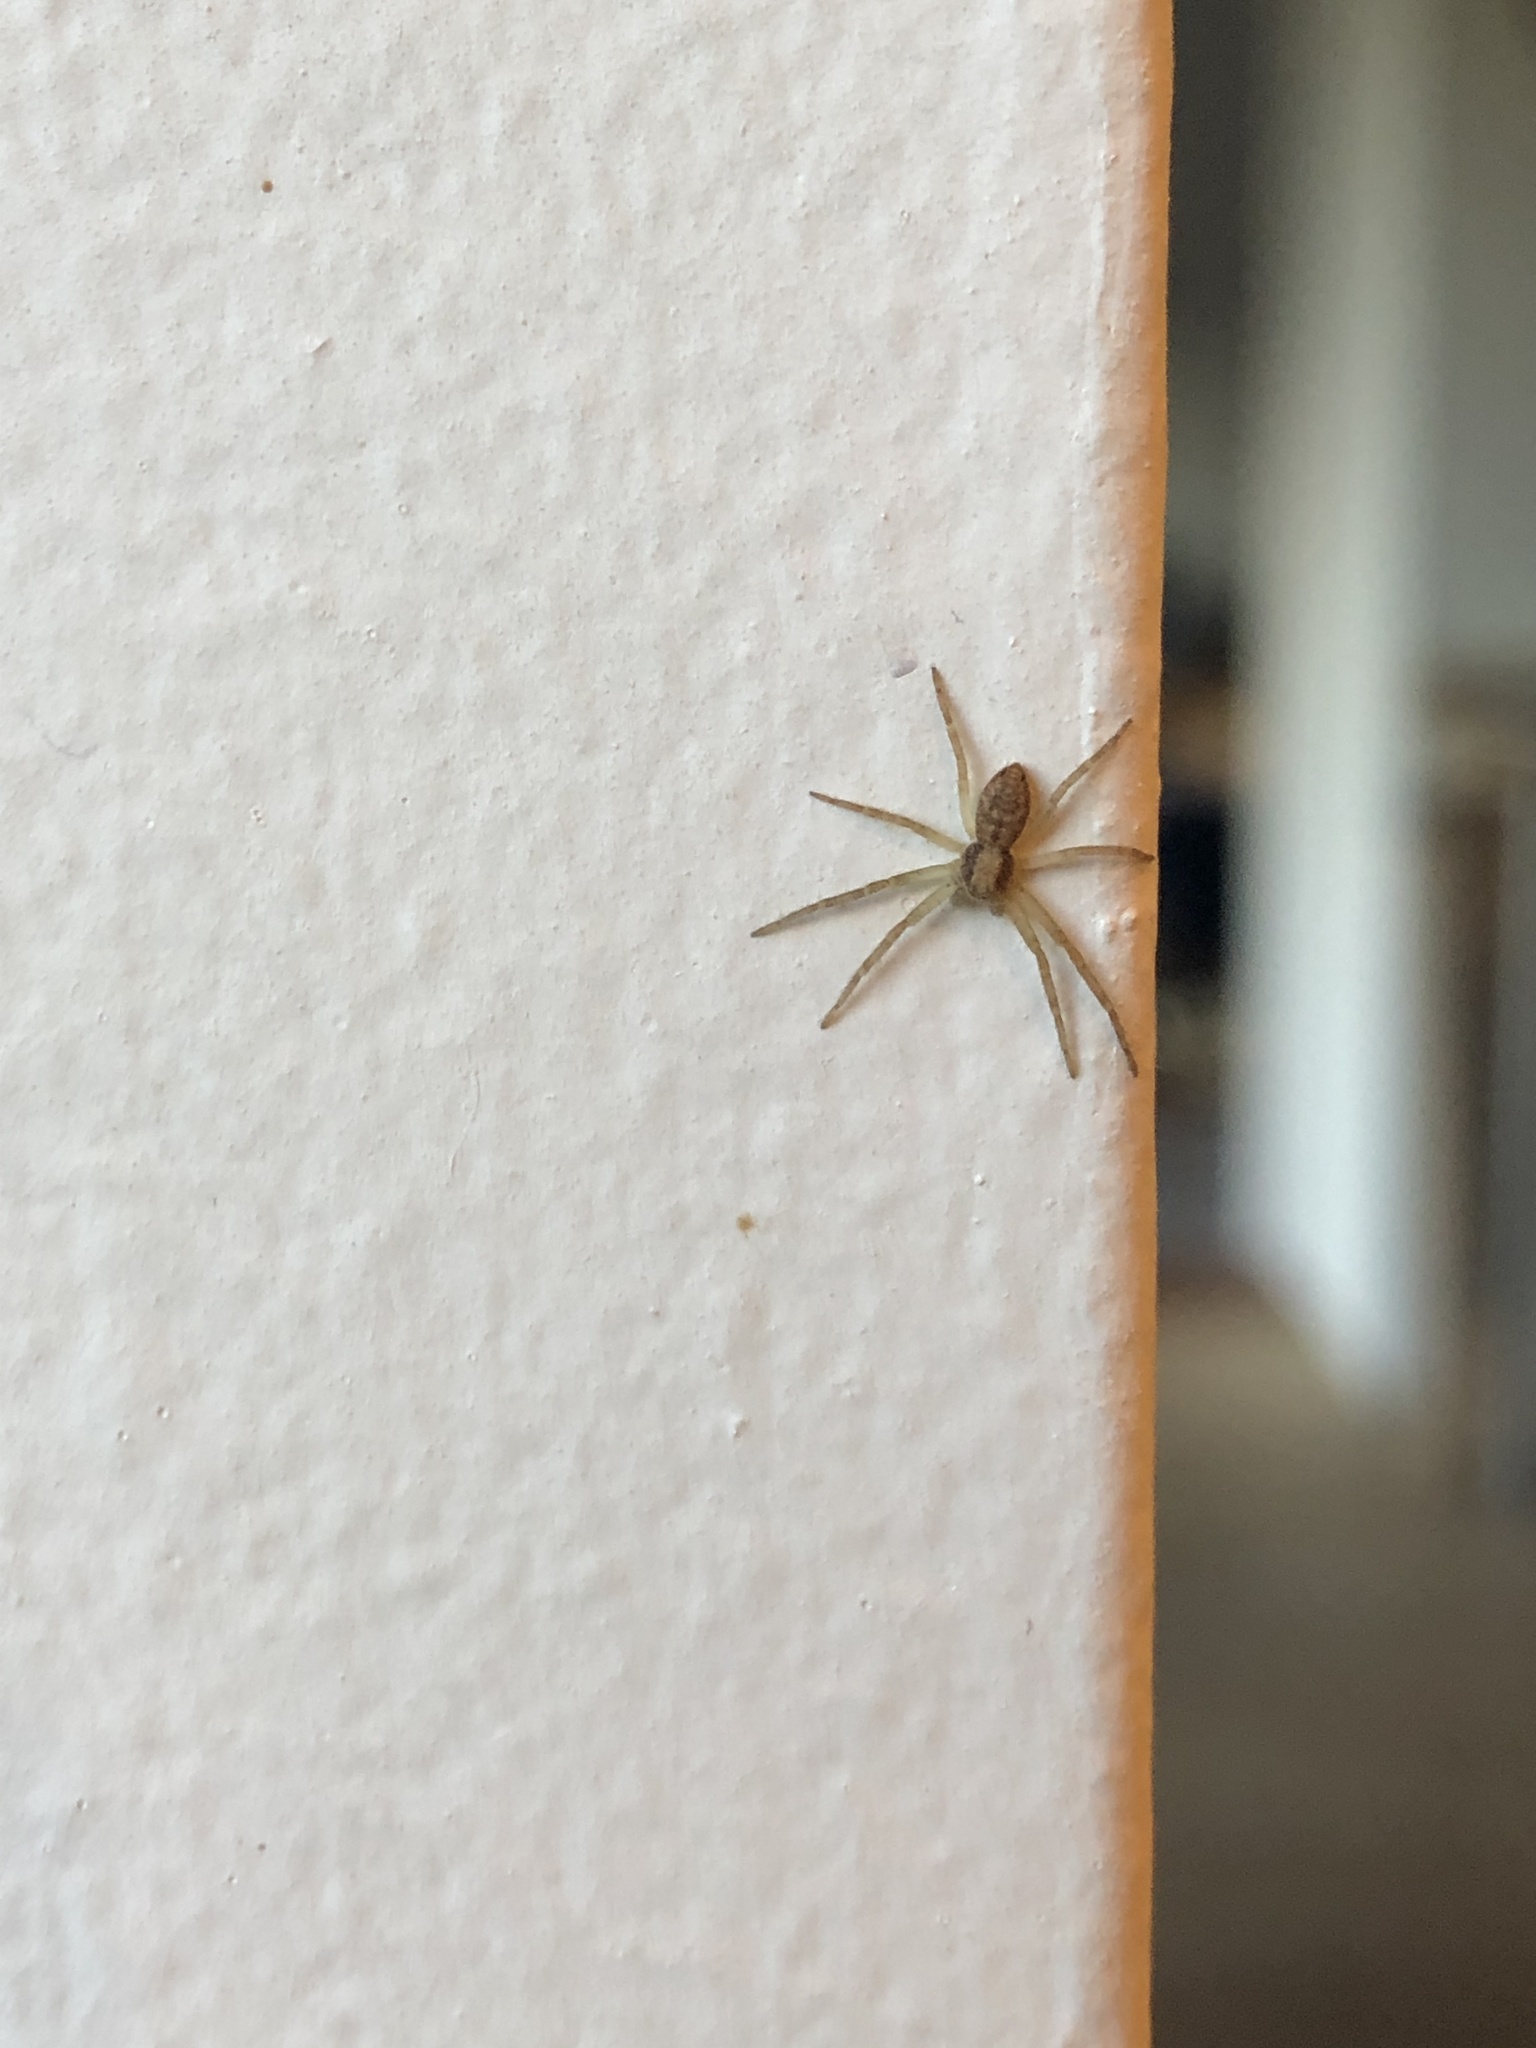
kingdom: Animalia
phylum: Arthropoda
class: Arachnida
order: Araneae
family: Philodromidae
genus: Philodromus
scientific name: Philodromus
